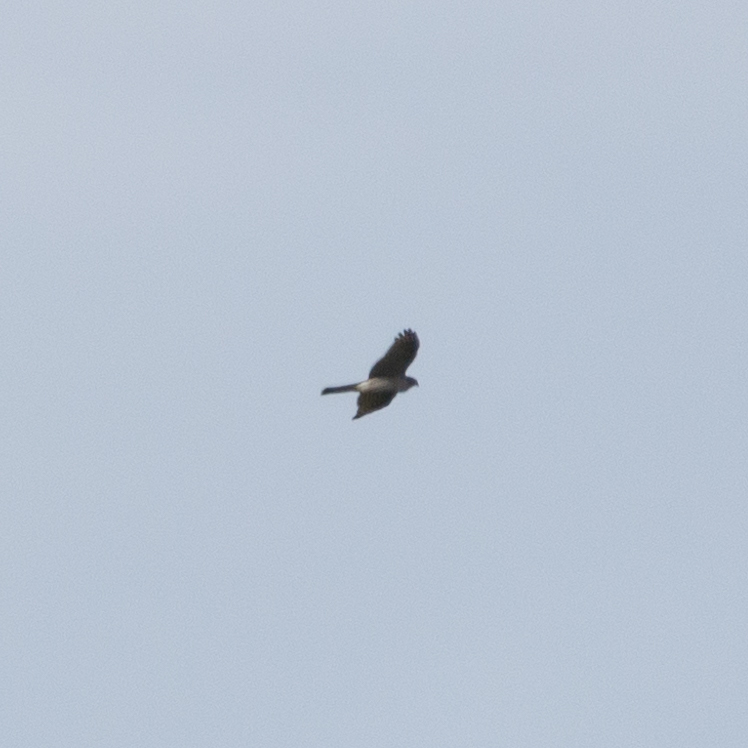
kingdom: Animalia
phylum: Chordata
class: Aves
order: Accipitriformes
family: Accipitridae
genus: Accipiter
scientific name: Accipiter nisus
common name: Eurasian sparrowhawk
